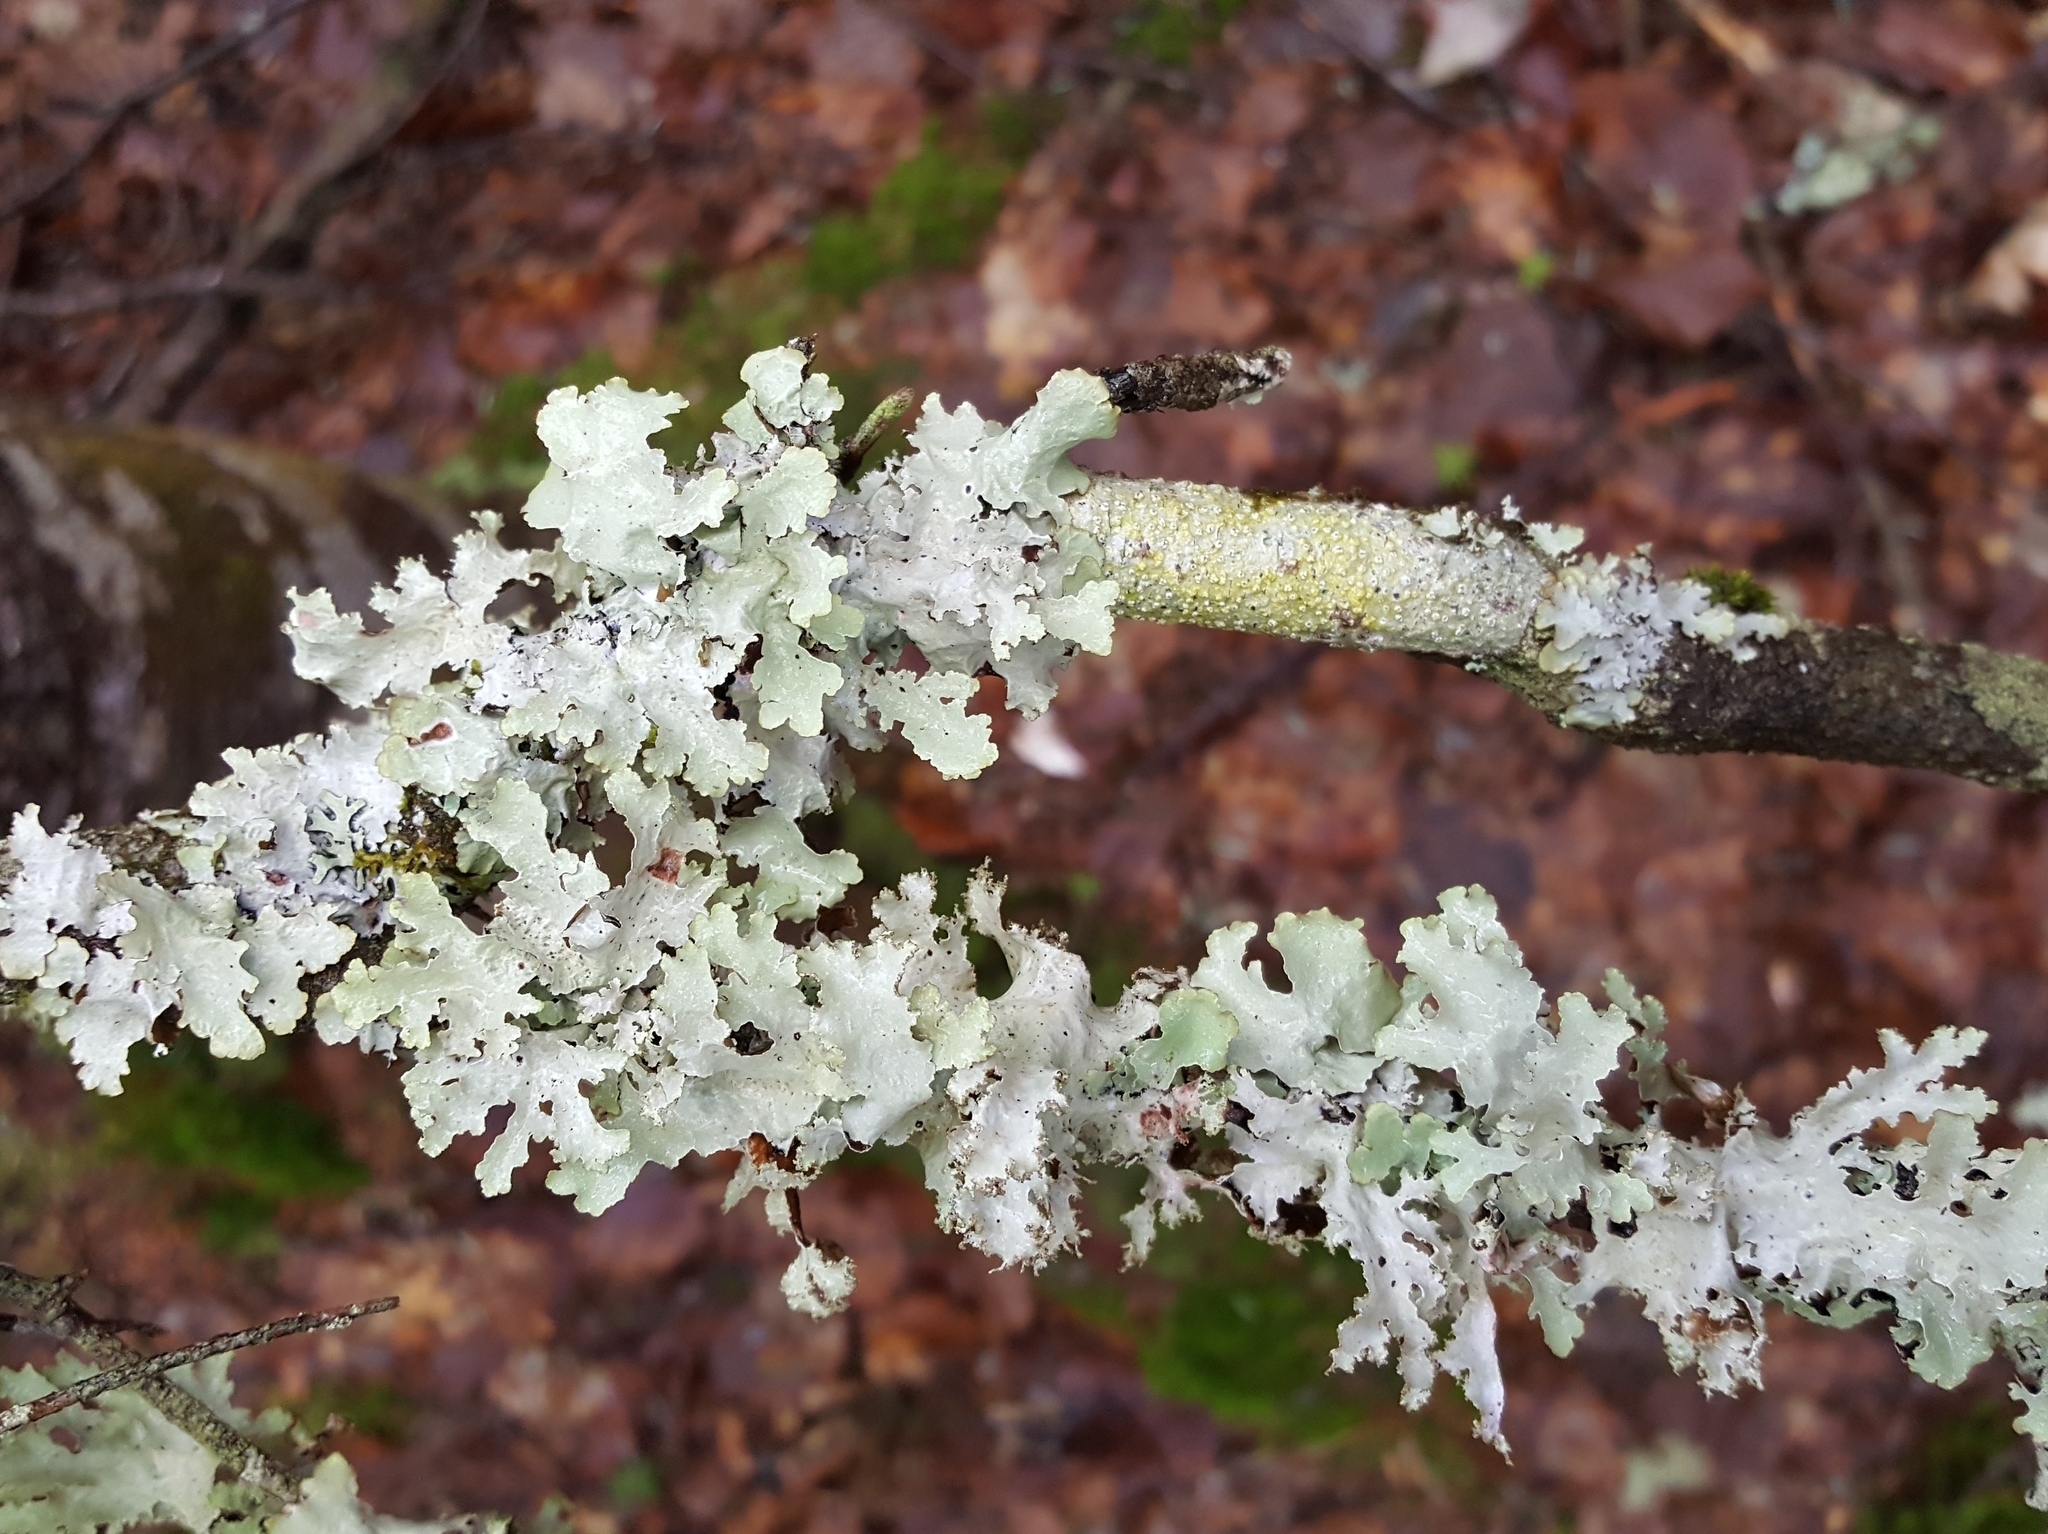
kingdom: Fungi
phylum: Ascomycota
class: Lecanoromycetes
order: Lecanorales
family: Parmeliaceae
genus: Platismatia
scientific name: Platismatia glauca
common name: Varied rag lichen
